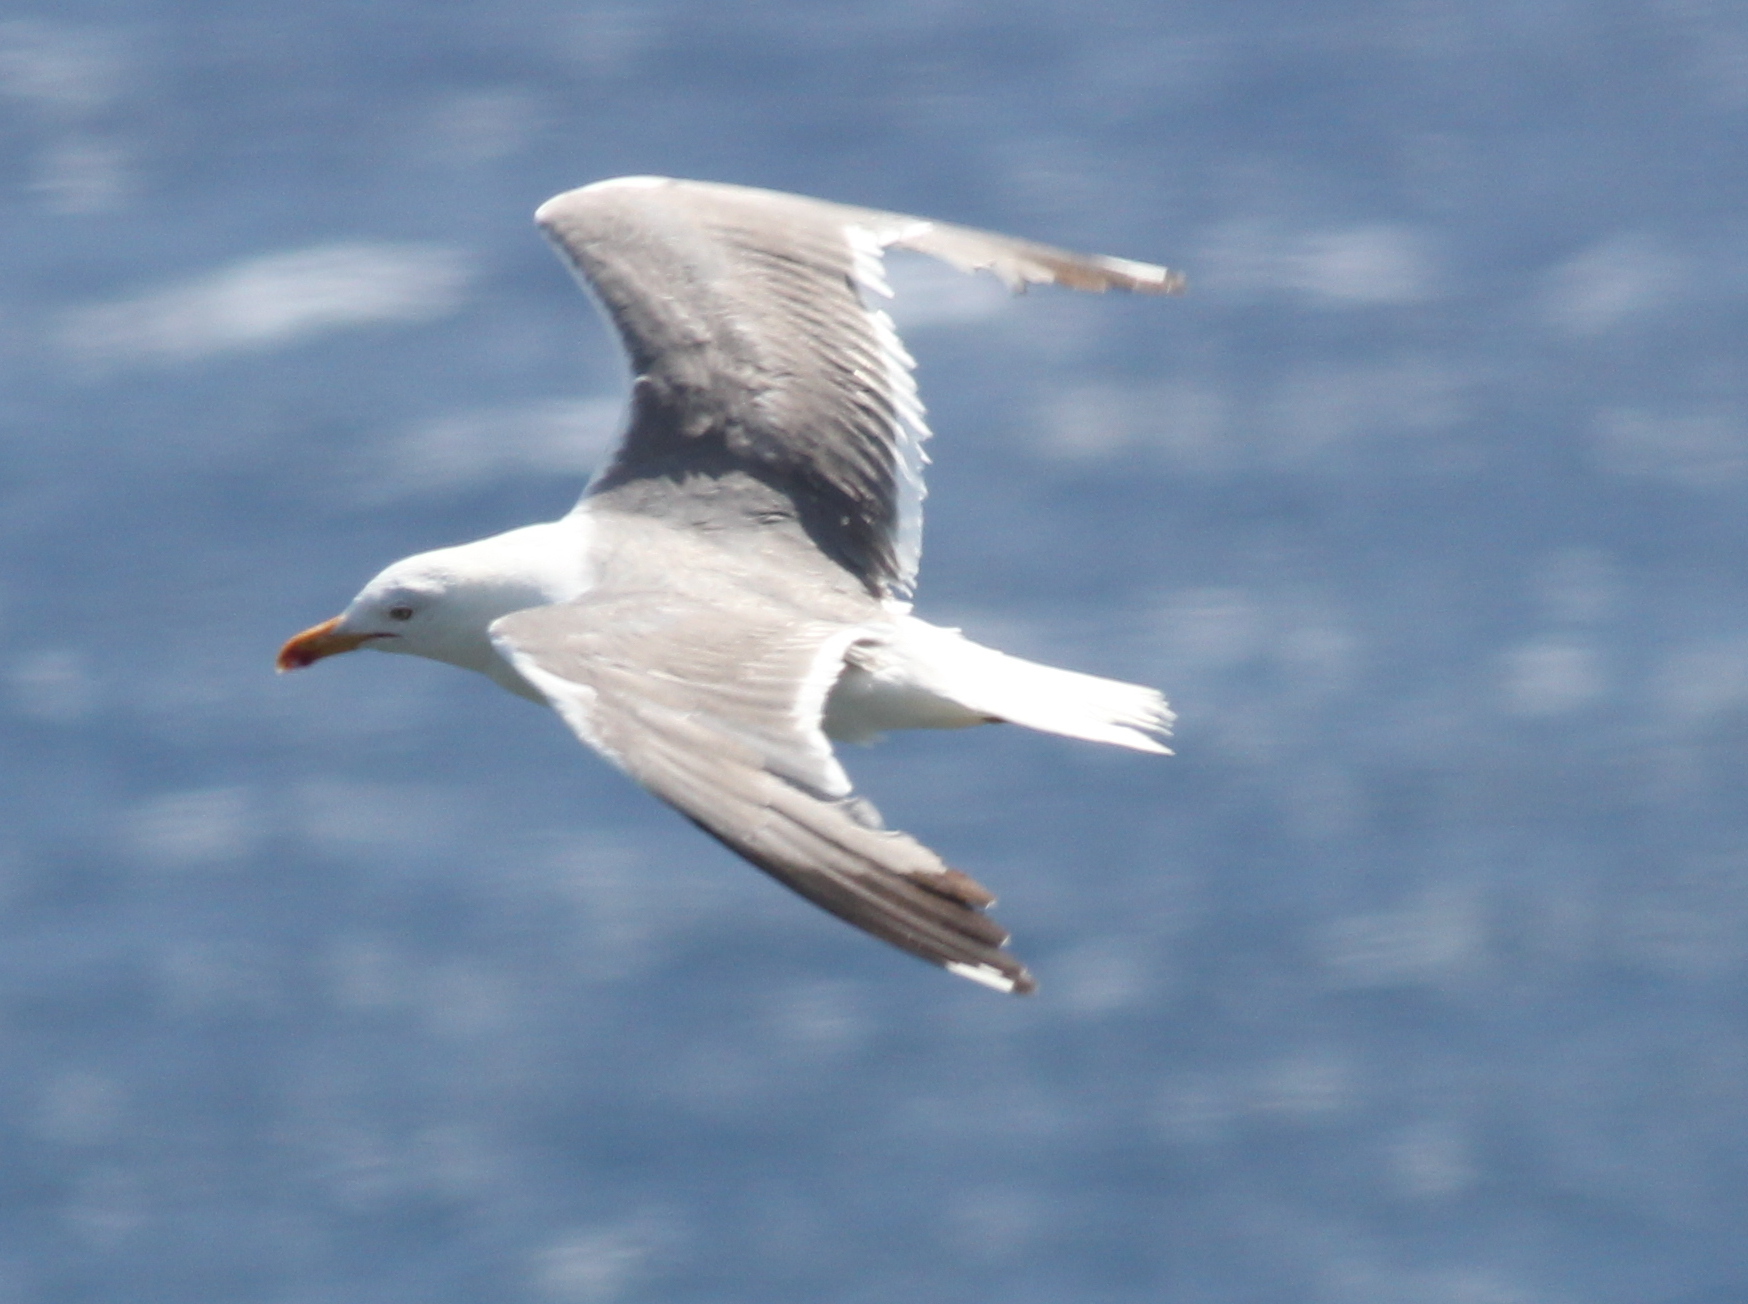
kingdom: Animalia
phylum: Chordata
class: Aves
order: Charadriiformes
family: Laridae
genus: Larus
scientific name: Larus michahellis
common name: Yellow-legged gull
